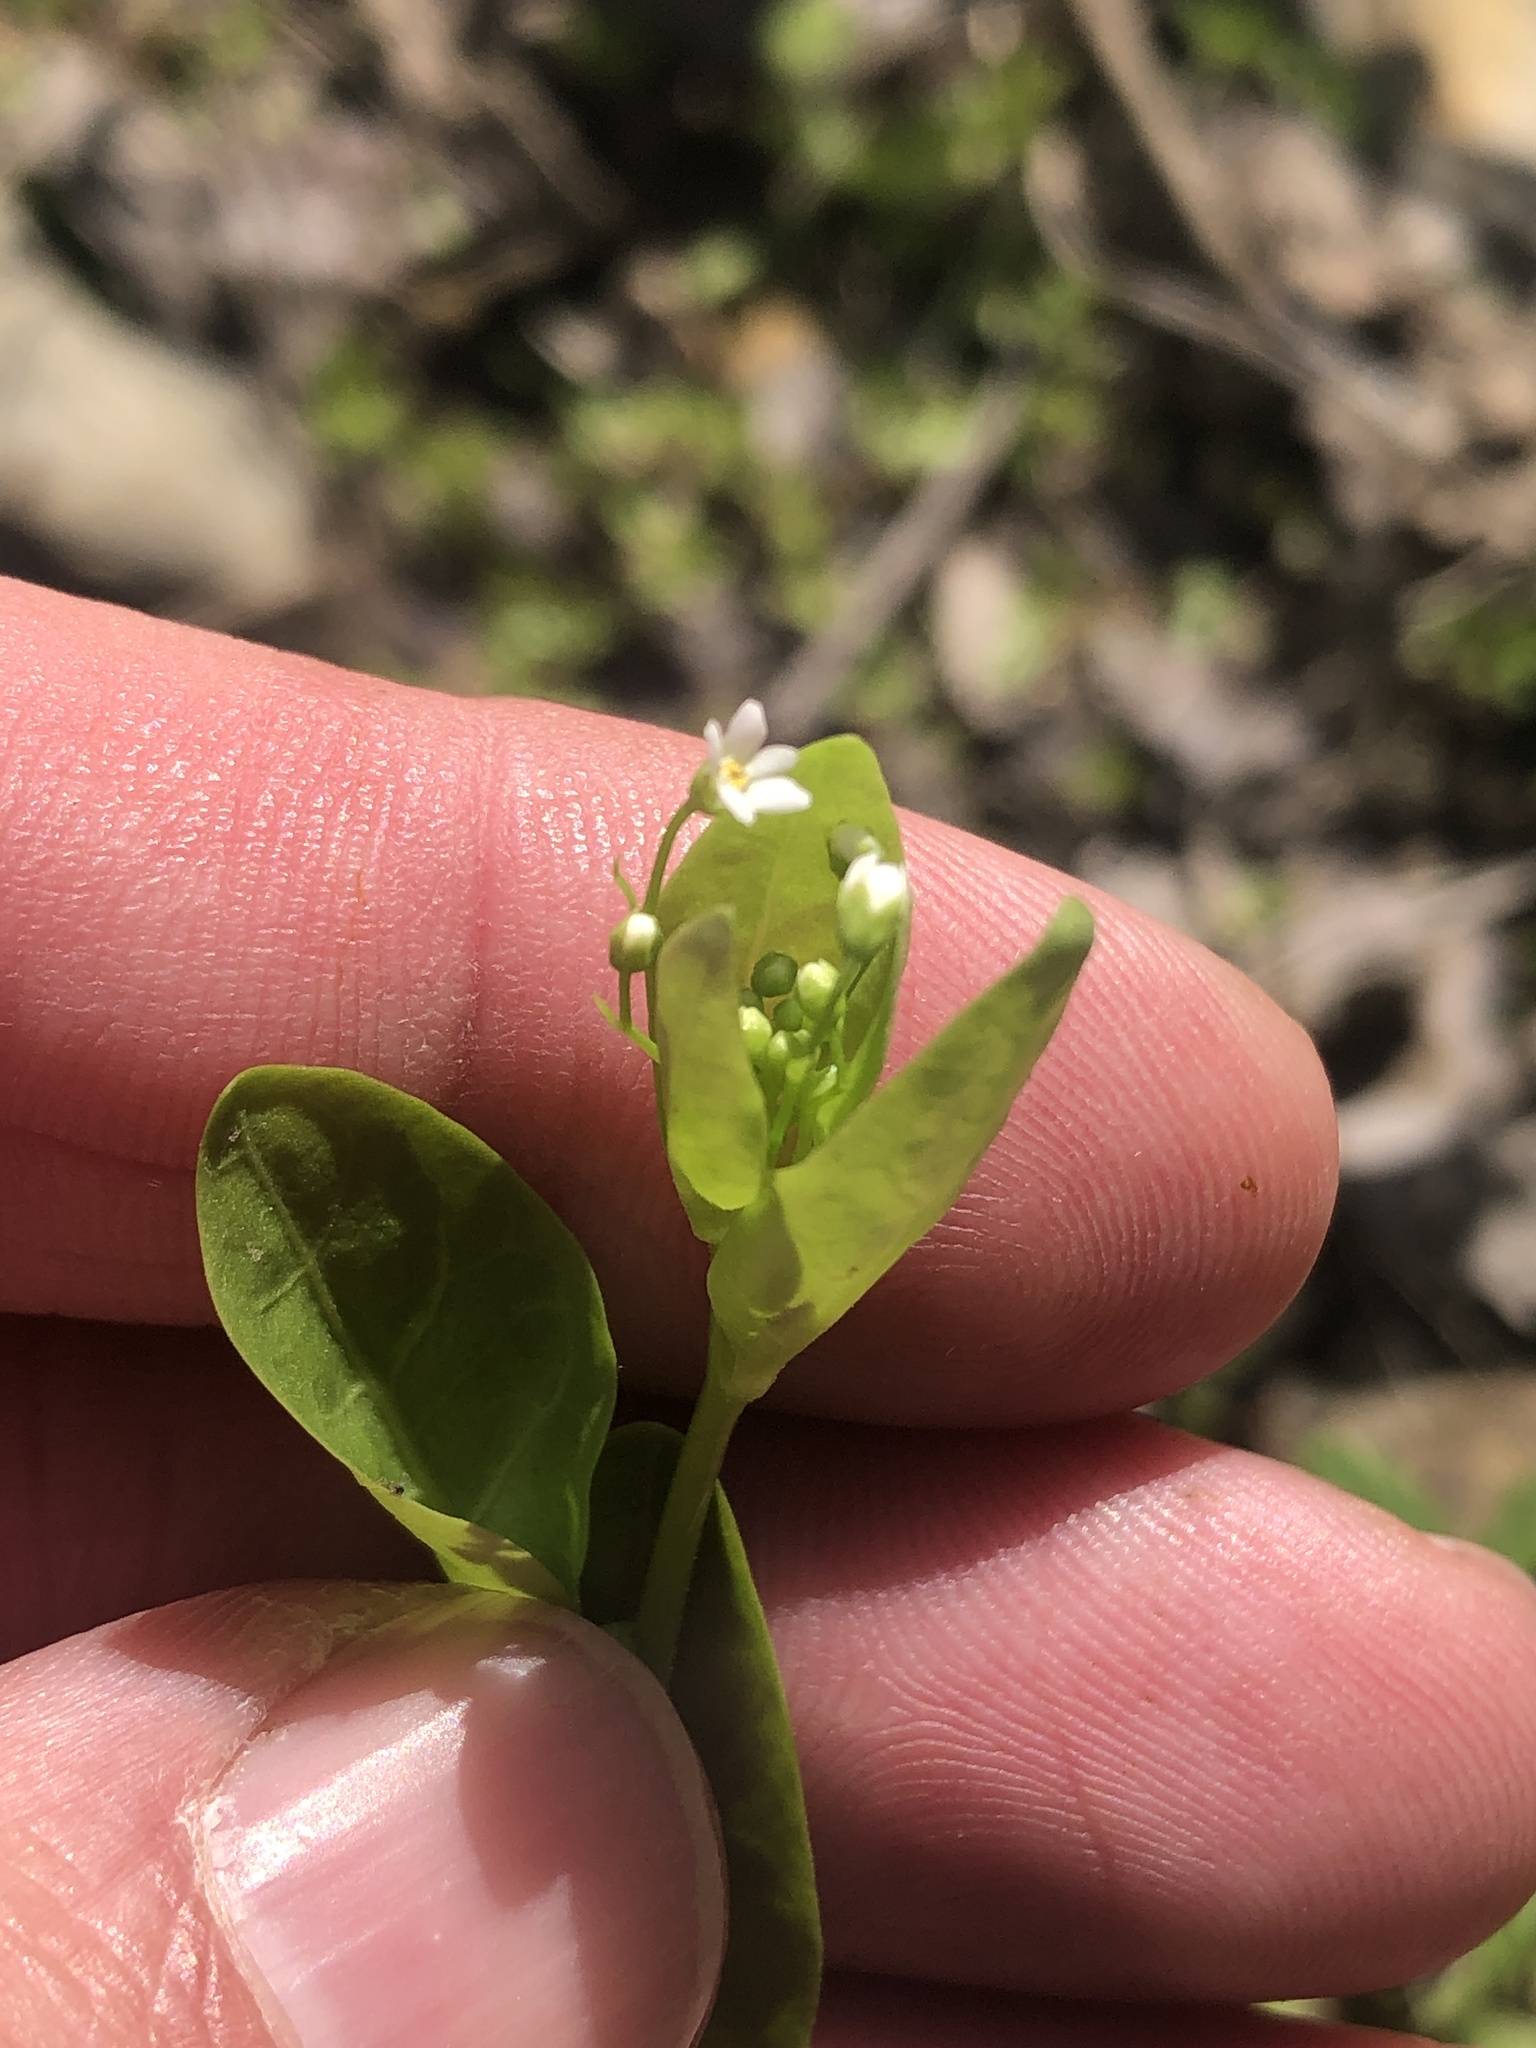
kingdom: Plantae
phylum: Tracheophyta
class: Magnoliopsida
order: Ericales
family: Primulaceae
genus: Samolus
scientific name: Samolus parviflorus
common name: False water pimpernel
